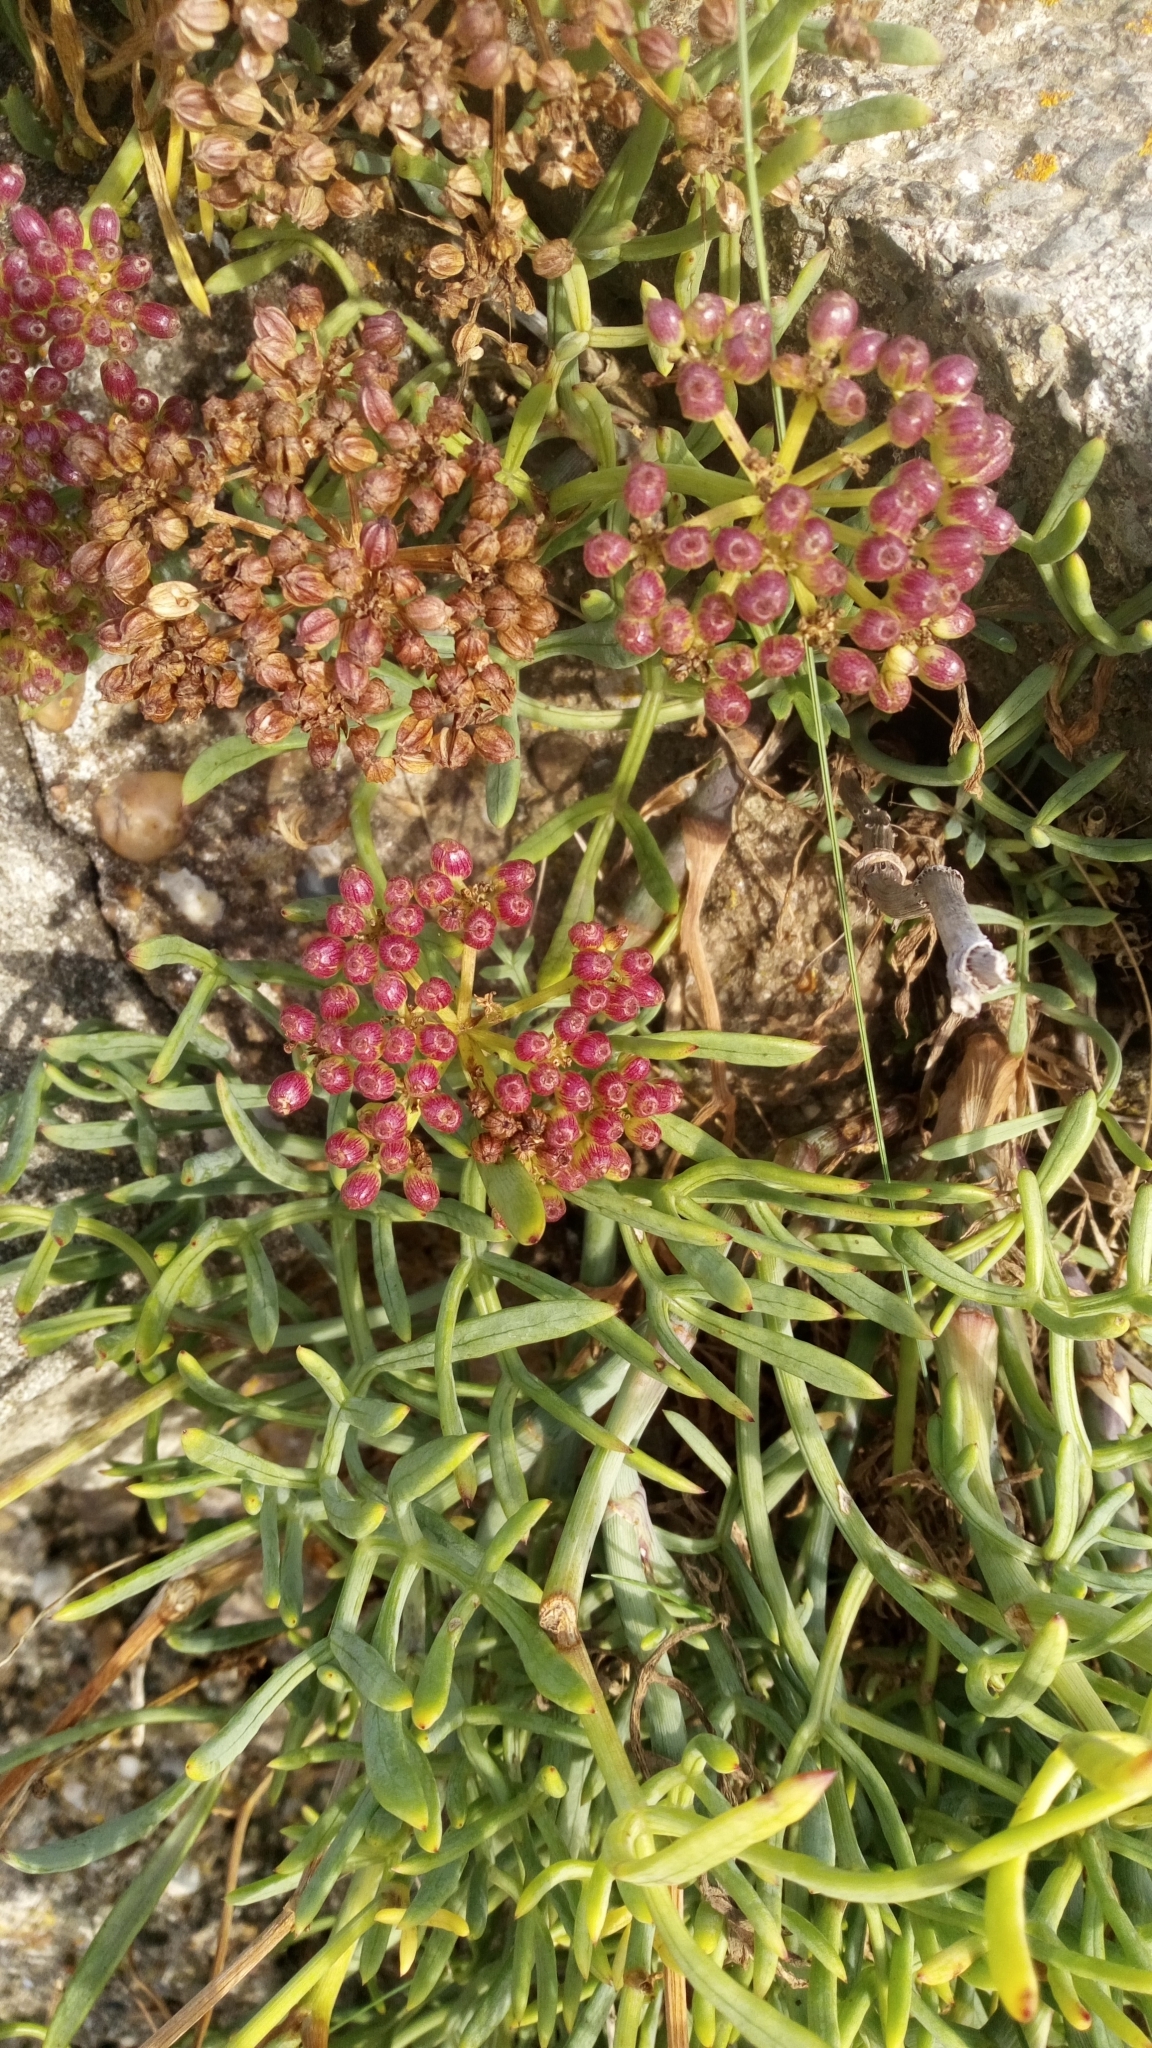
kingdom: Plantae
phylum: Tracheophyta
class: Magnoliopsida
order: Apiales
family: Apiaceae
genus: Crithmum
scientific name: Crithmum maritimum
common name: Rock samphire
